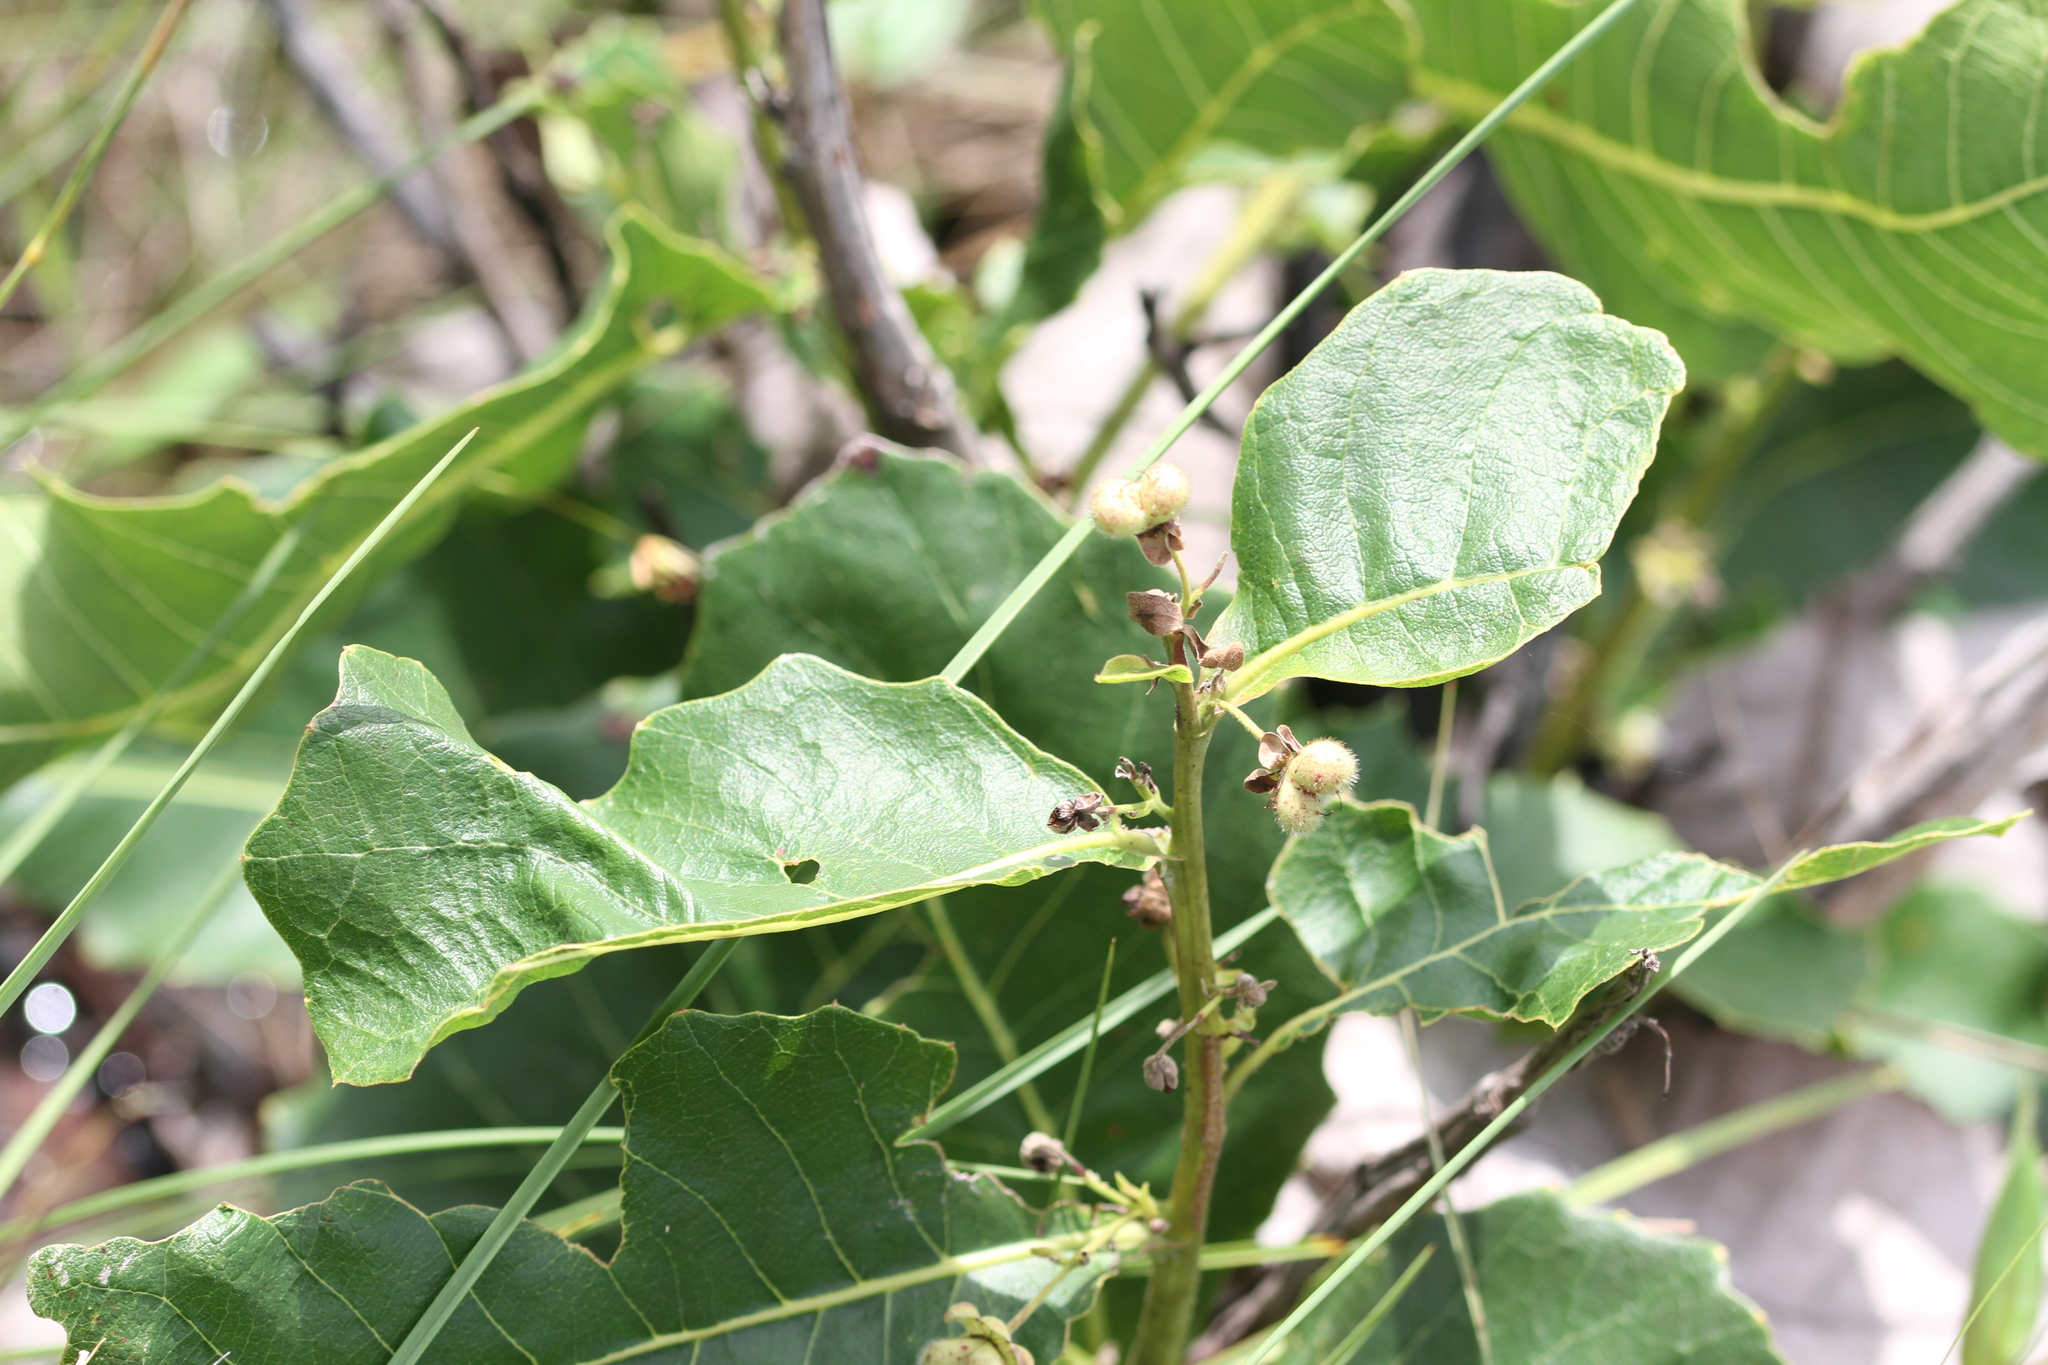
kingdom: Plantae
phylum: Tracheophyta
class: Magnoliopsida
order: Dilleniales
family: Dilleniaceae
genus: Curatella
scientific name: Curatella americana
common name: Sandpaper tree
